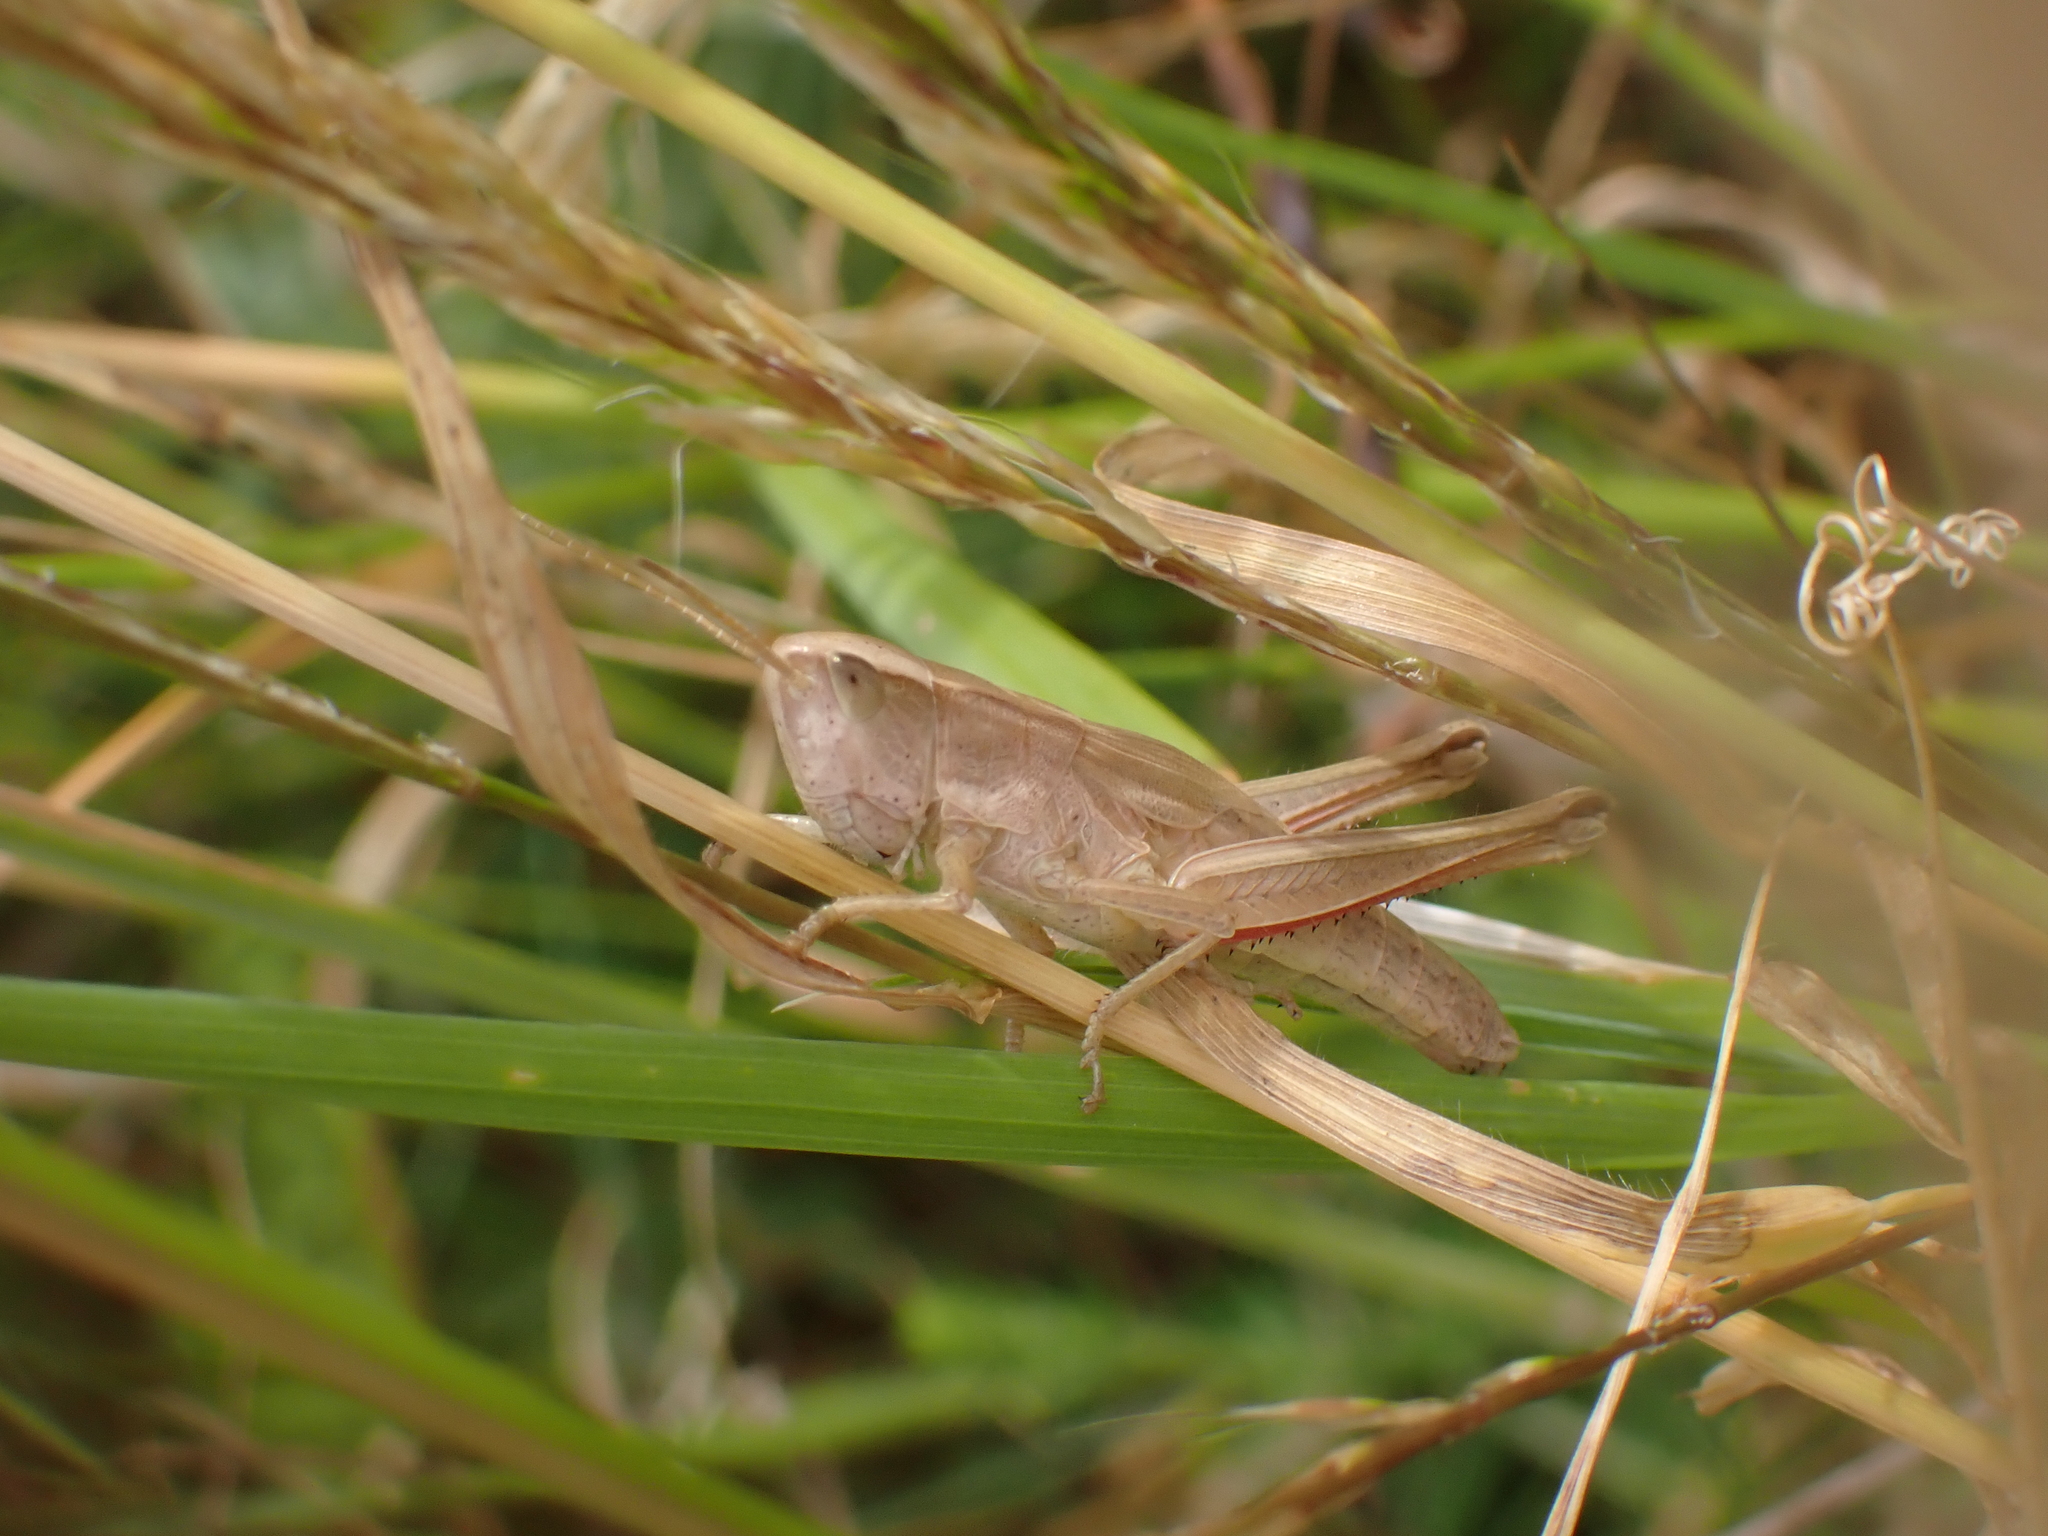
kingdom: Animalia
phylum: Arthropoda
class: Insecta
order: Orthoptera
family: Acrididae
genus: Chrysochraon
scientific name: Chrysochraon dispar
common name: Large gold grasshopper
